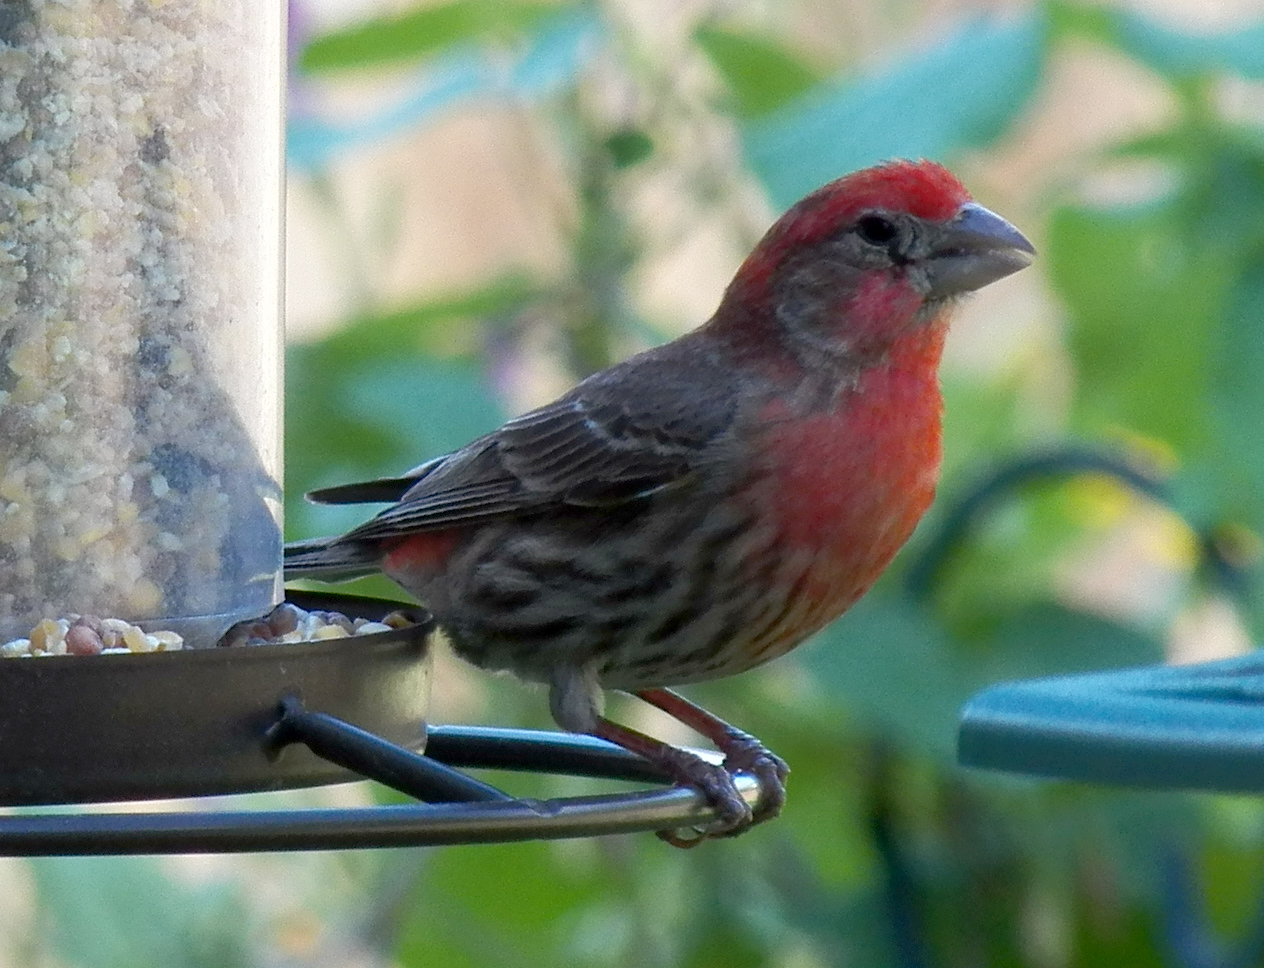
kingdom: Animalia
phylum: Chordata
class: Aves
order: Passeriformes
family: Fringillidae
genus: Haemorhous
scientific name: Haemorhous mexicanus
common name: House finch
